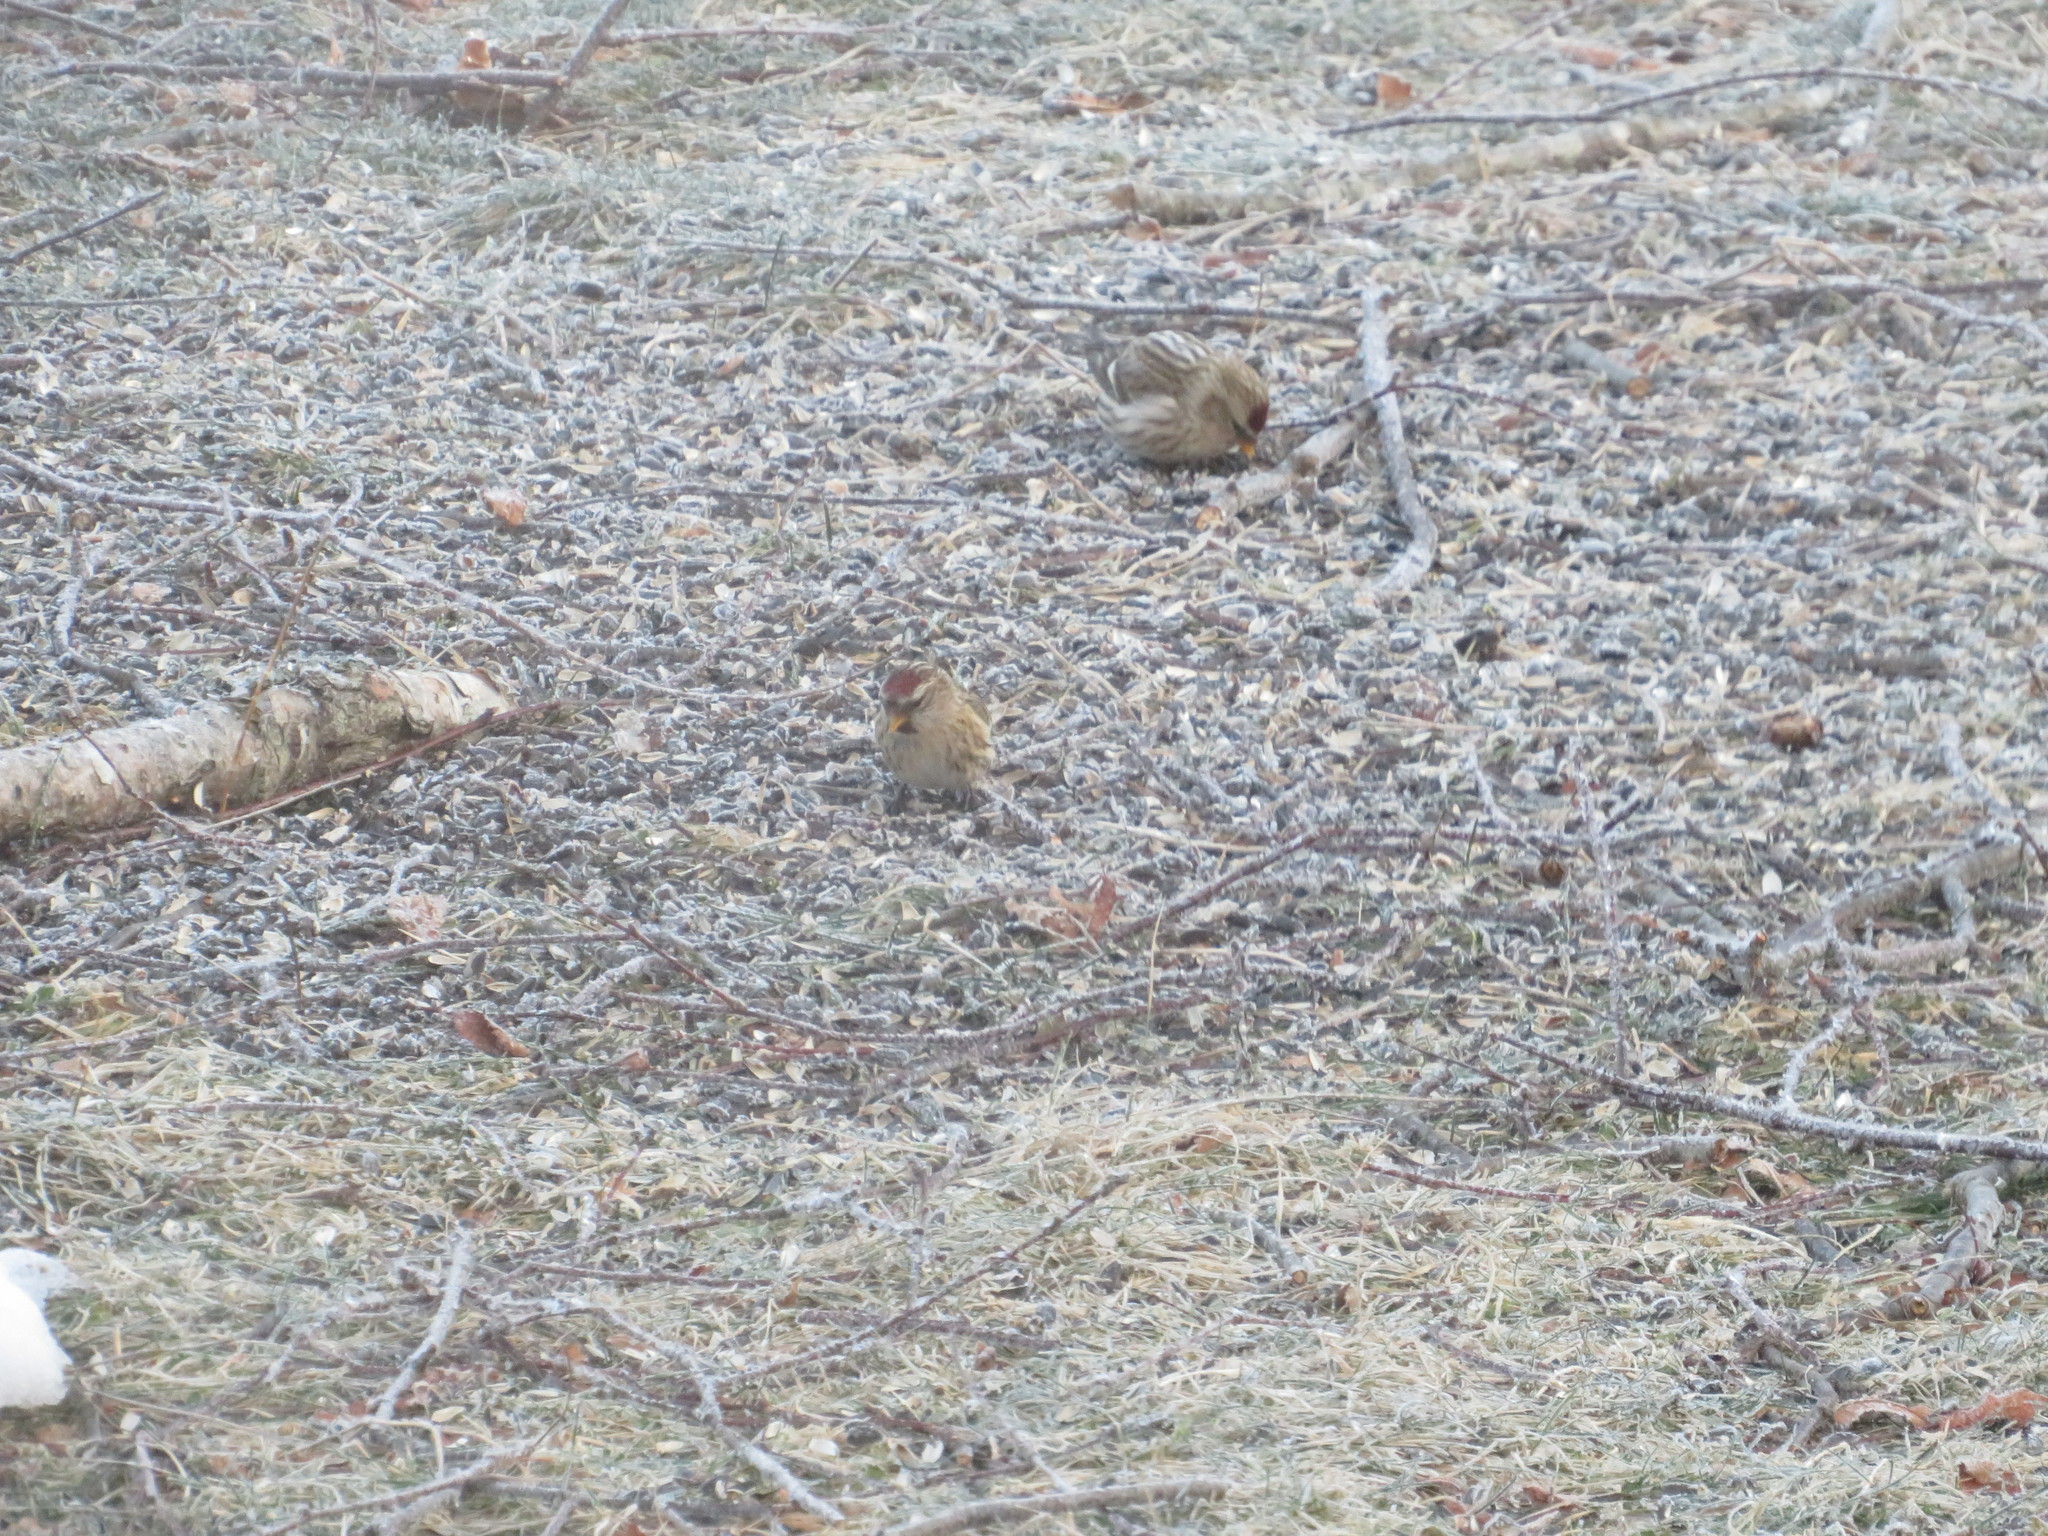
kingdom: Animalia
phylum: Chordata
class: Aves
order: Passeriformes
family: Fringillidae
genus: Acanthis
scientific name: Acanthis flammea
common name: Common redpoll
